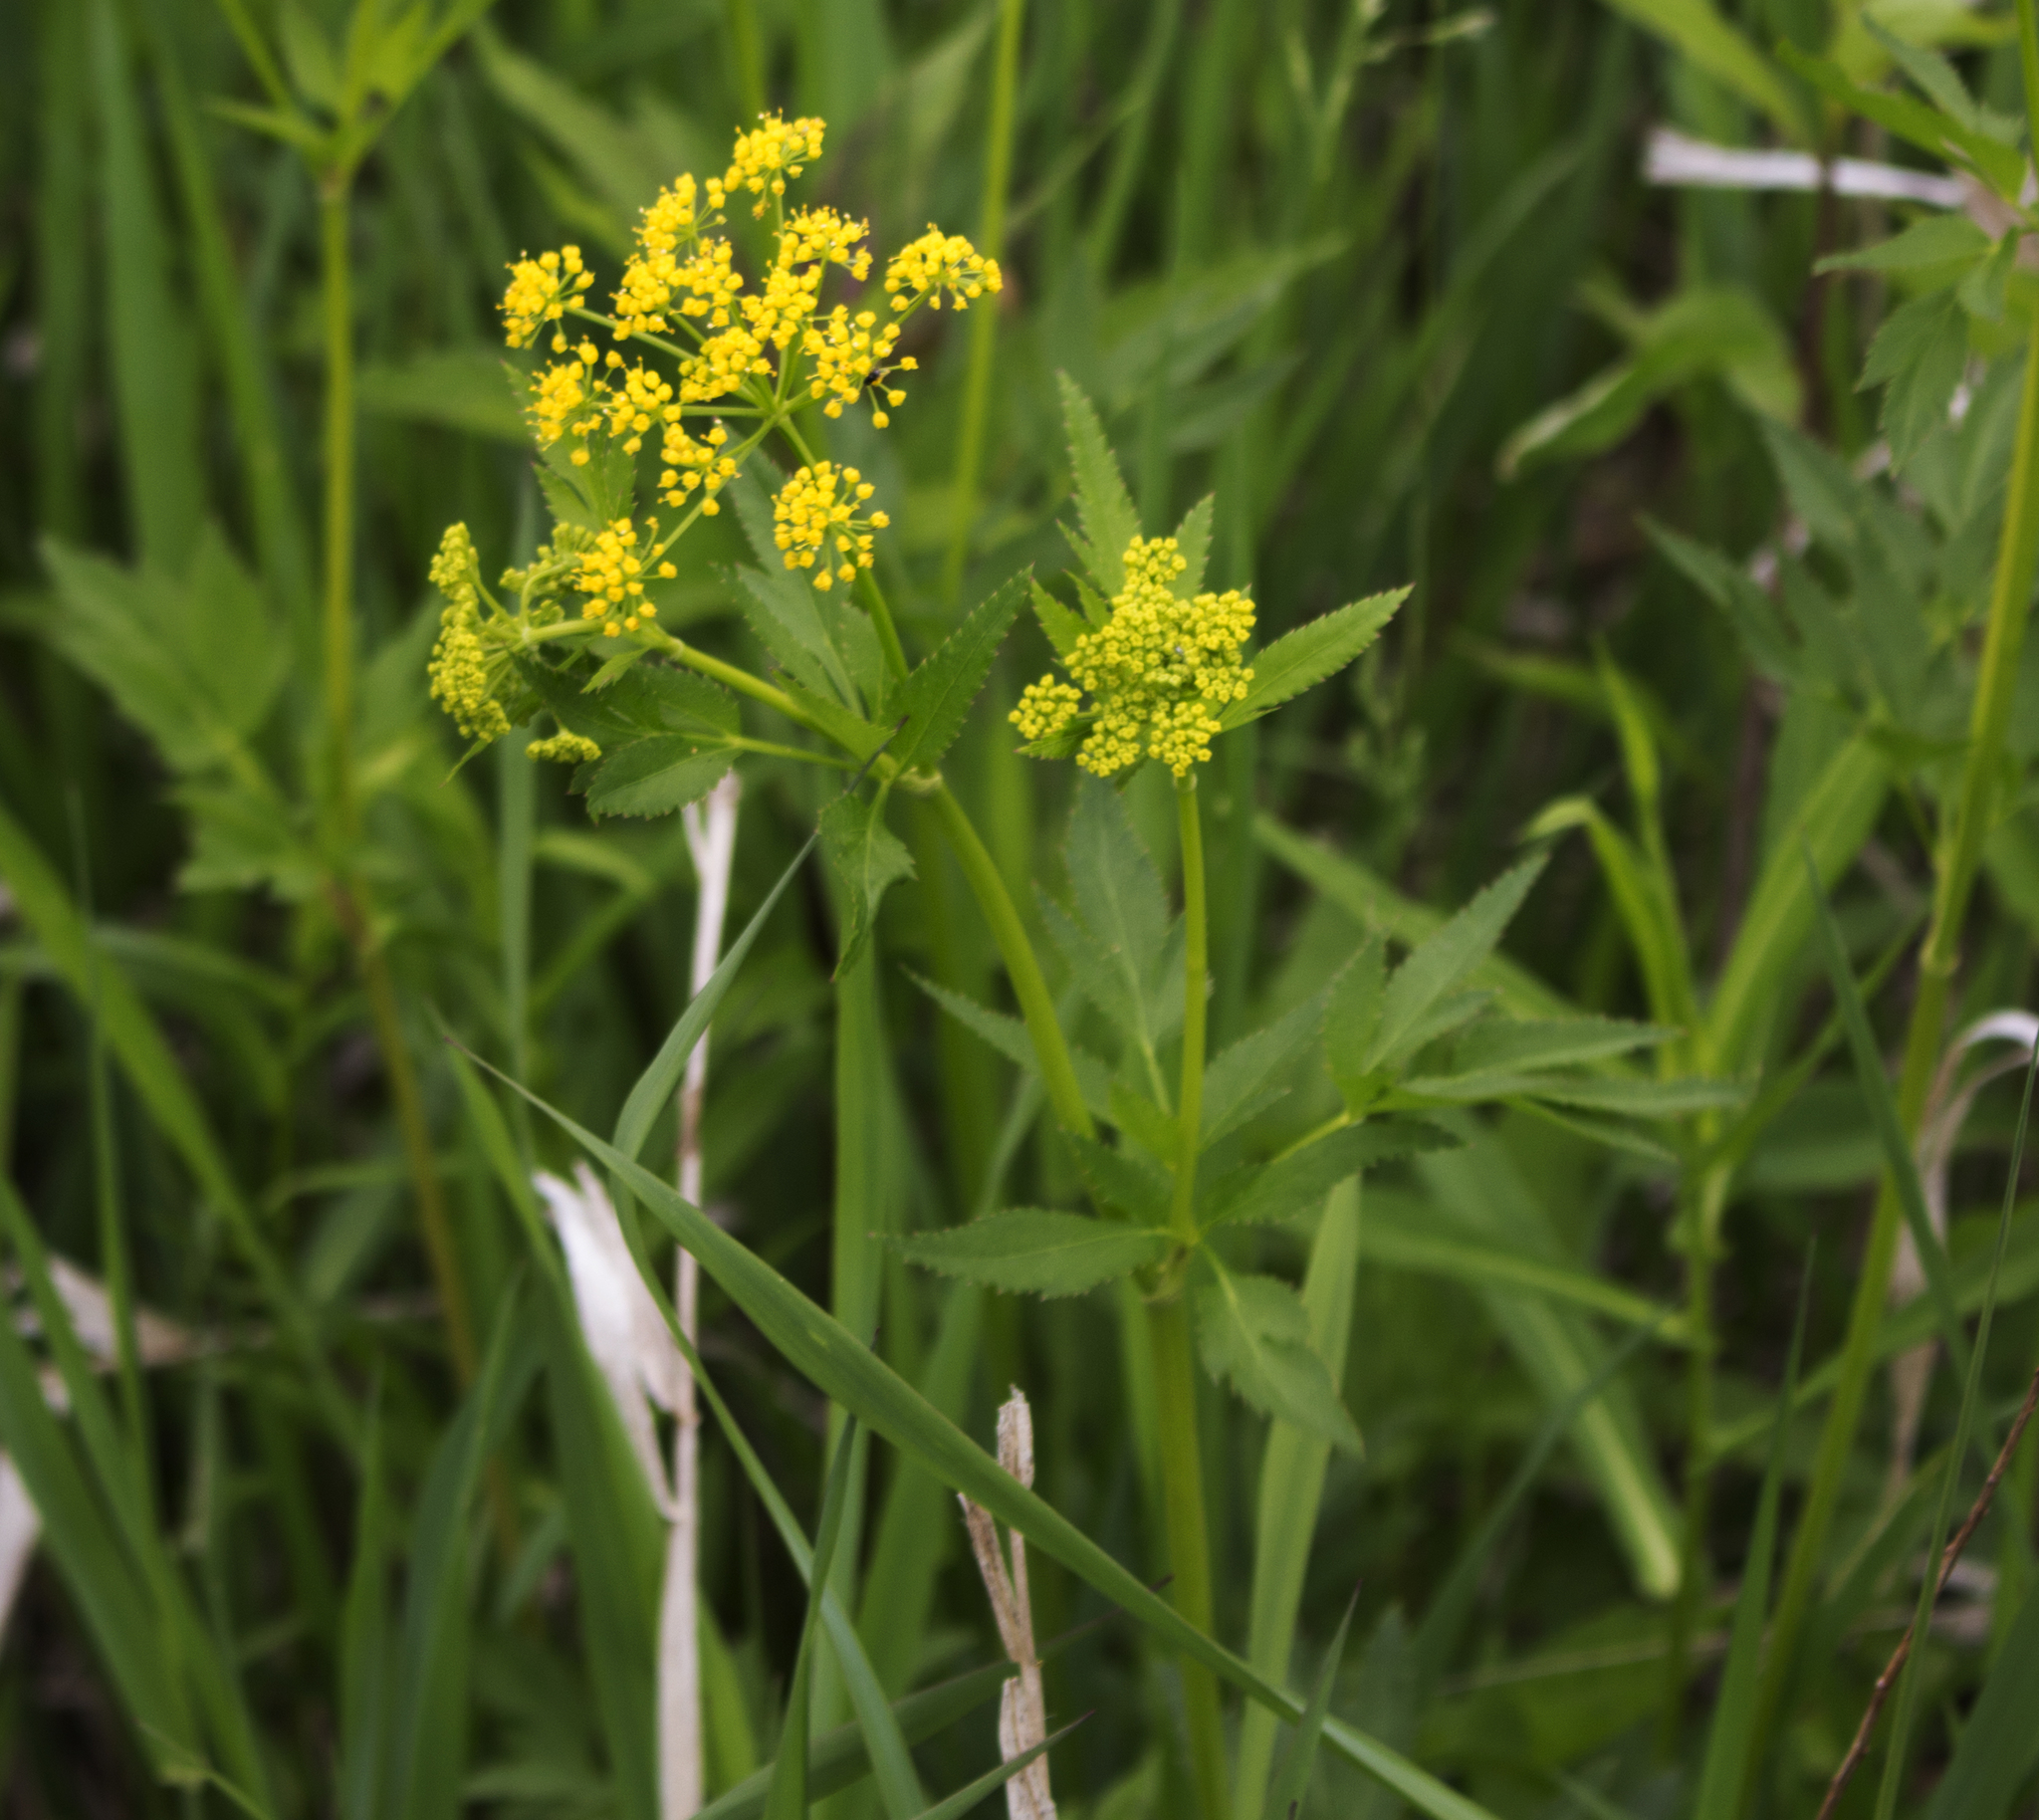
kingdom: Plantae
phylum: Tracheophyta
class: Magnoliopsida
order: Apiales
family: Apiaceae
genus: Zizia
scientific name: Zizia aurea
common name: Golden alexanders
